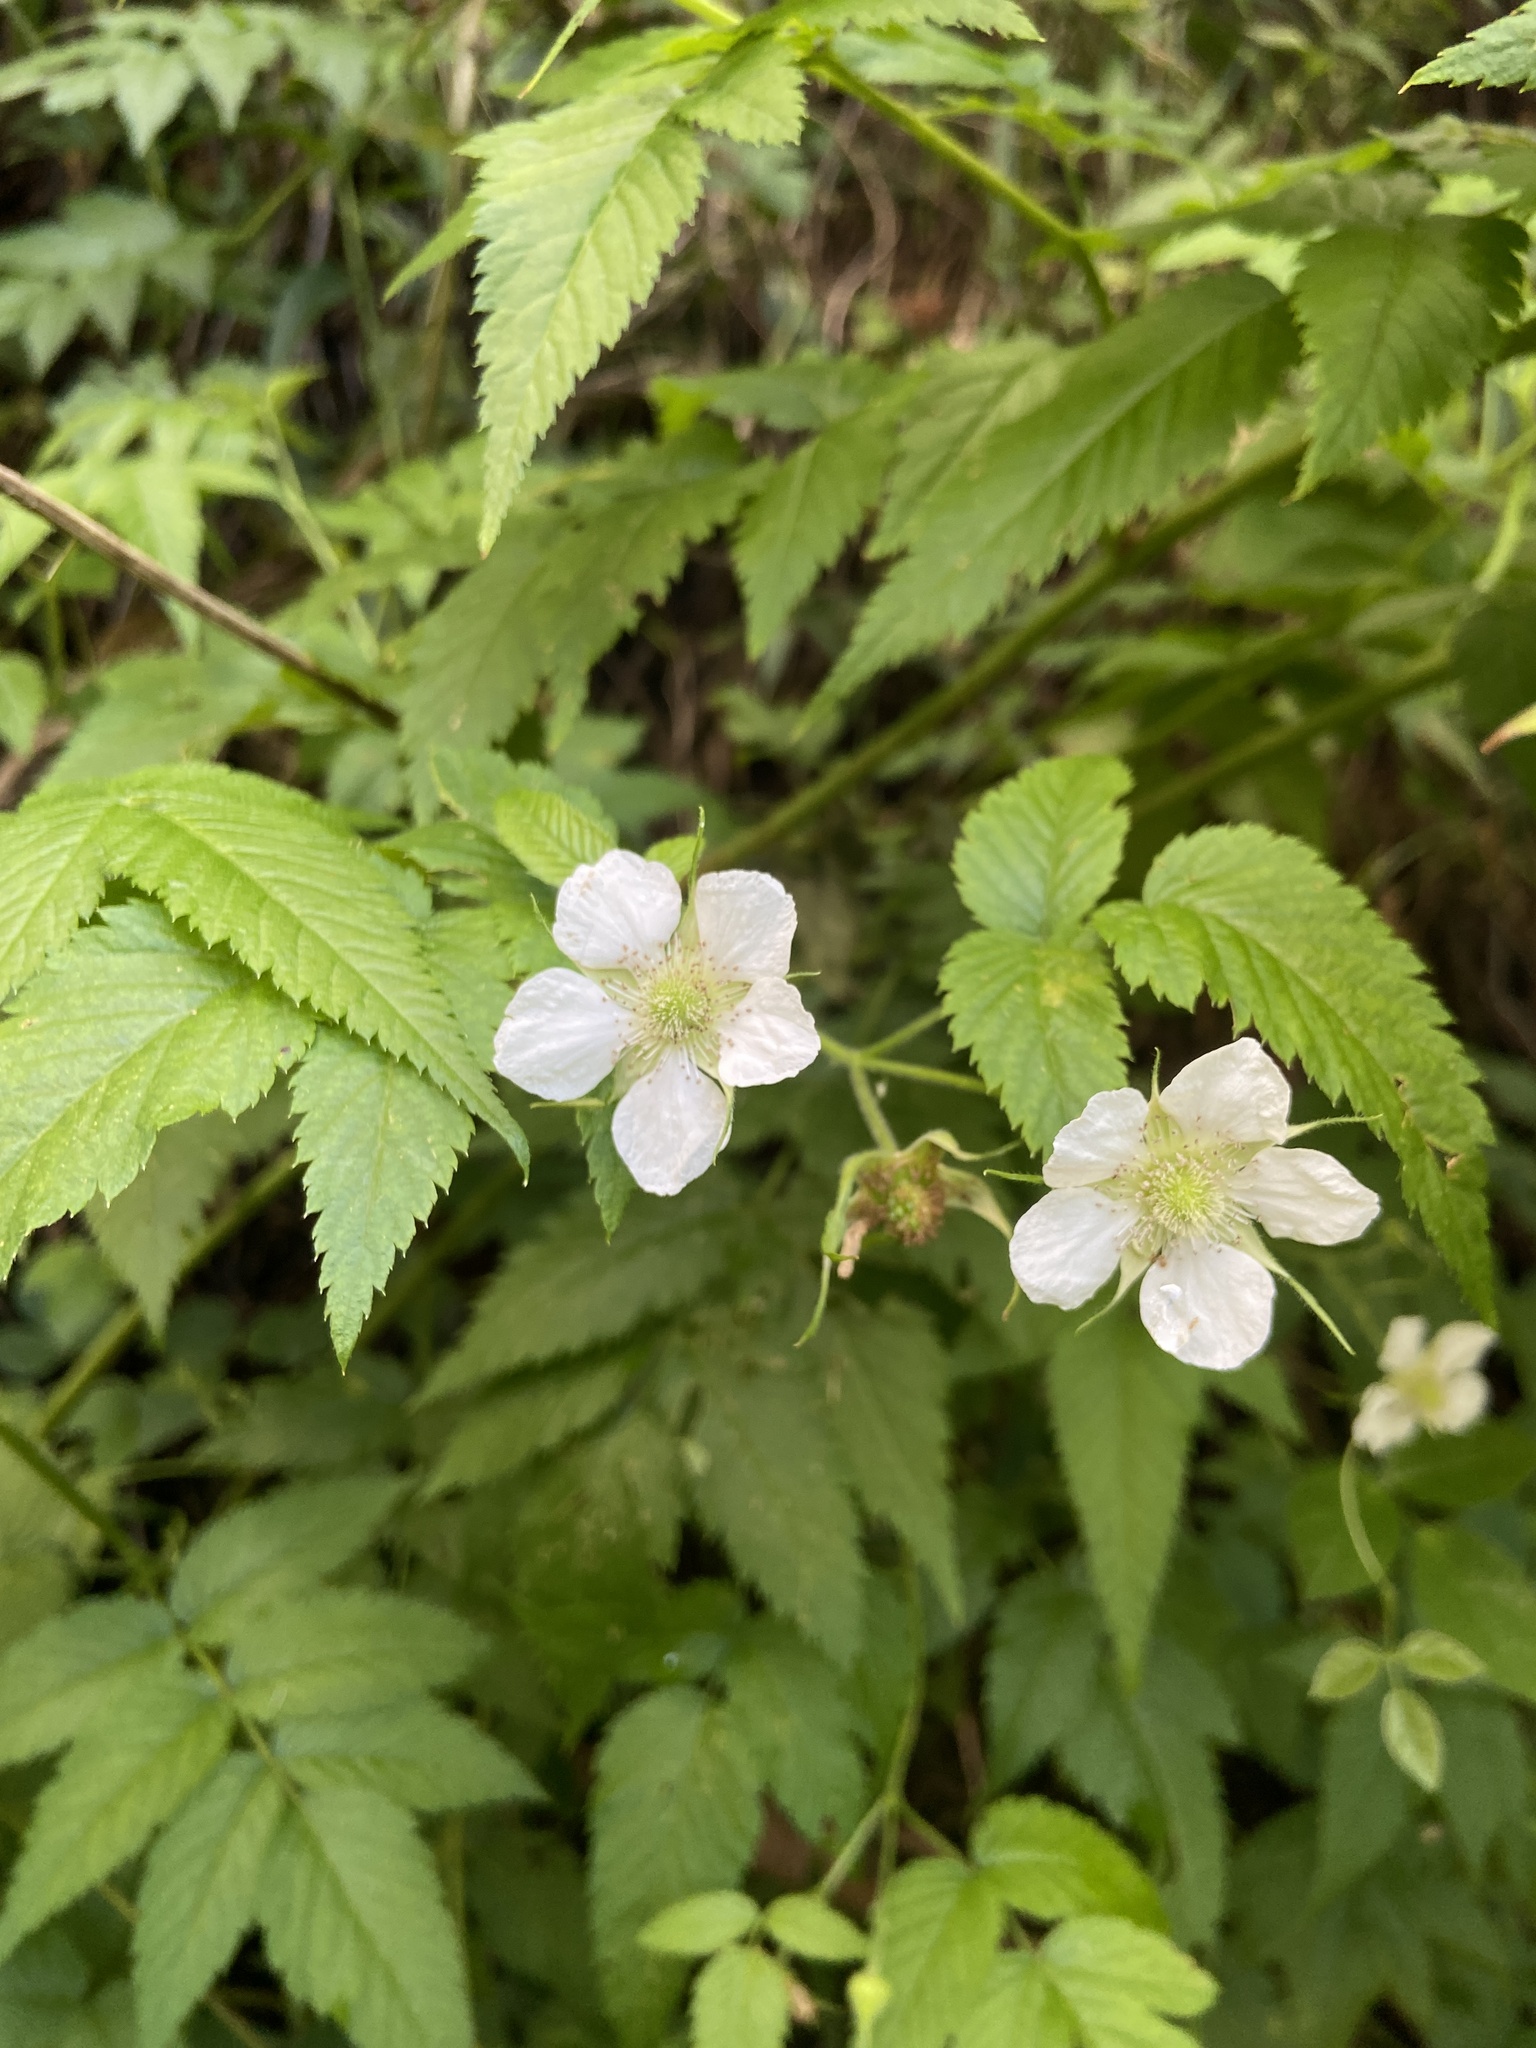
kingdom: Plantae
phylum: Tracheophyta
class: Magnoliopsida
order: Rosales
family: Rosaceae
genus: Rubus
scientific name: Rubus rosifolius
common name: Roseleaf raspberry
